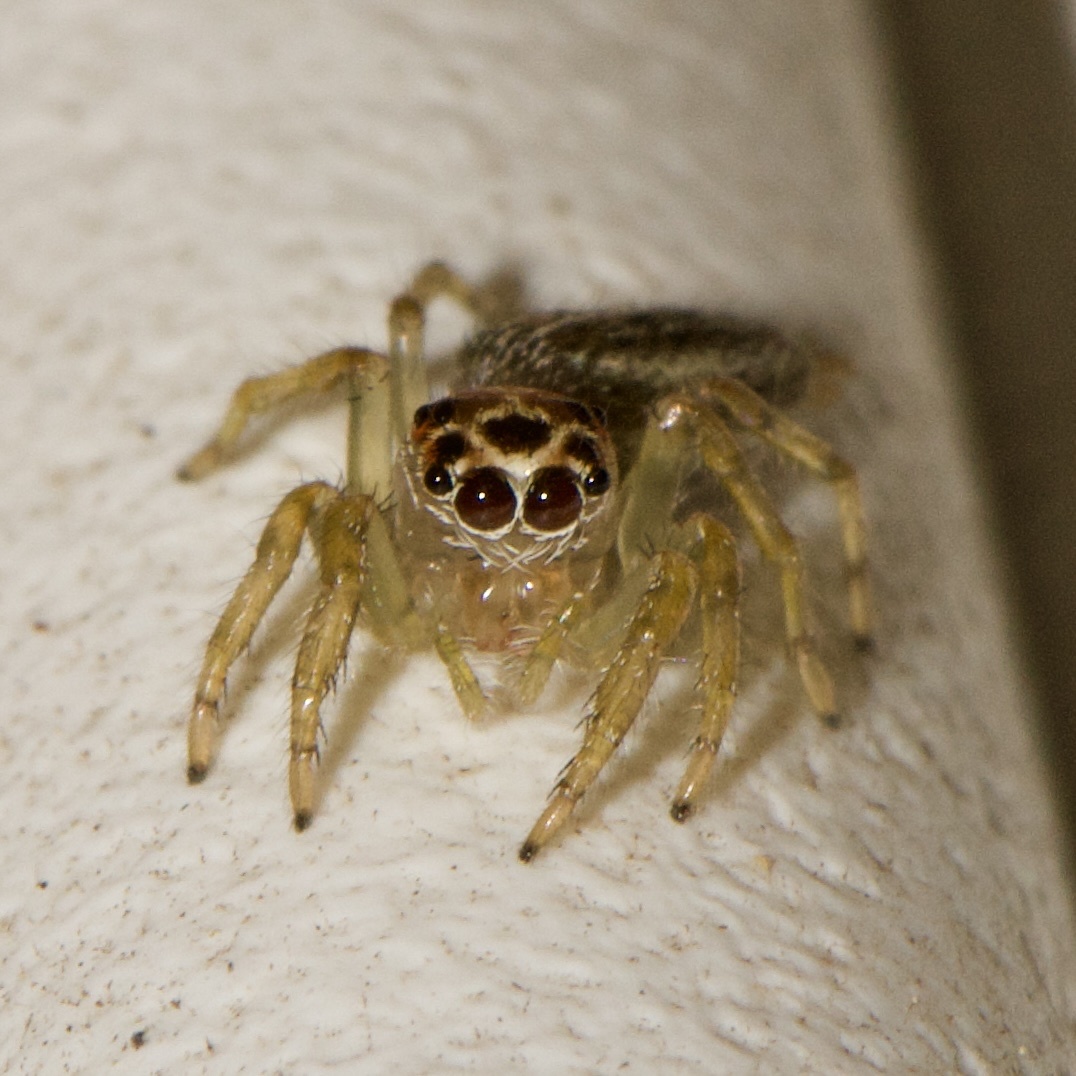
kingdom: Animalia
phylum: Arthropoda
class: Arachnida
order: Araneae
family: Salticidae
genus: Colonus
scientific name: Colonus sylvanus
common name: Jumping spiders
